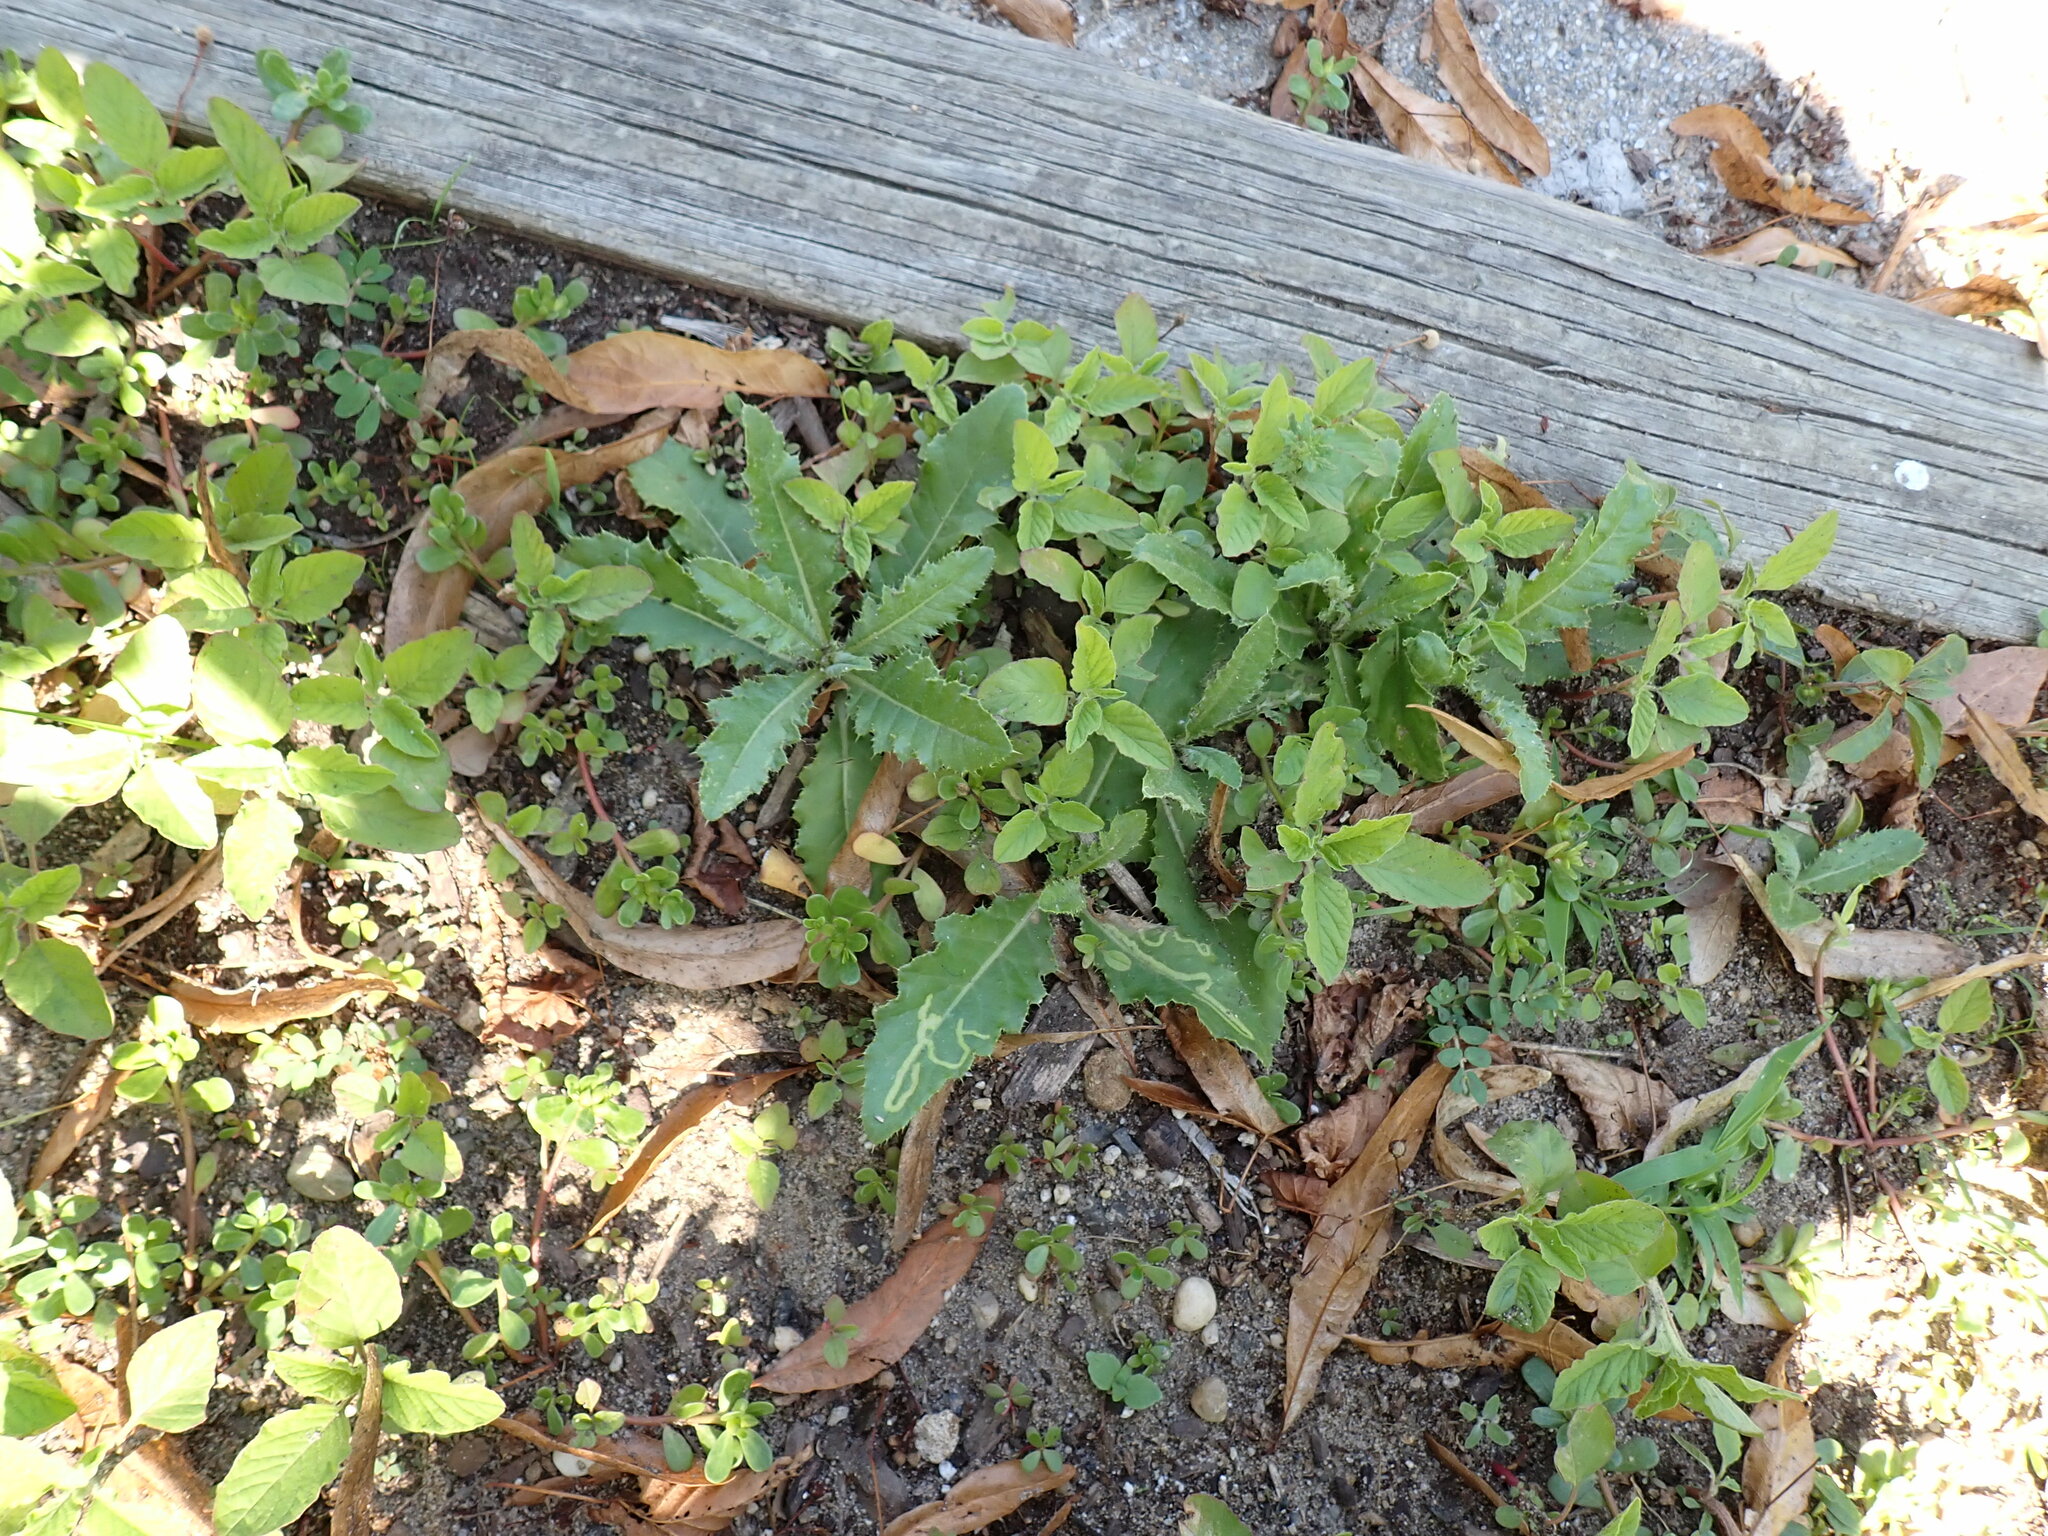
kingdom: Animalia
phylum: Arthropoda
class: Insecta
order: Diptera
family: Agromyzidae
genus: Phytomyza
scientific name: Phytomyza spinaciae
